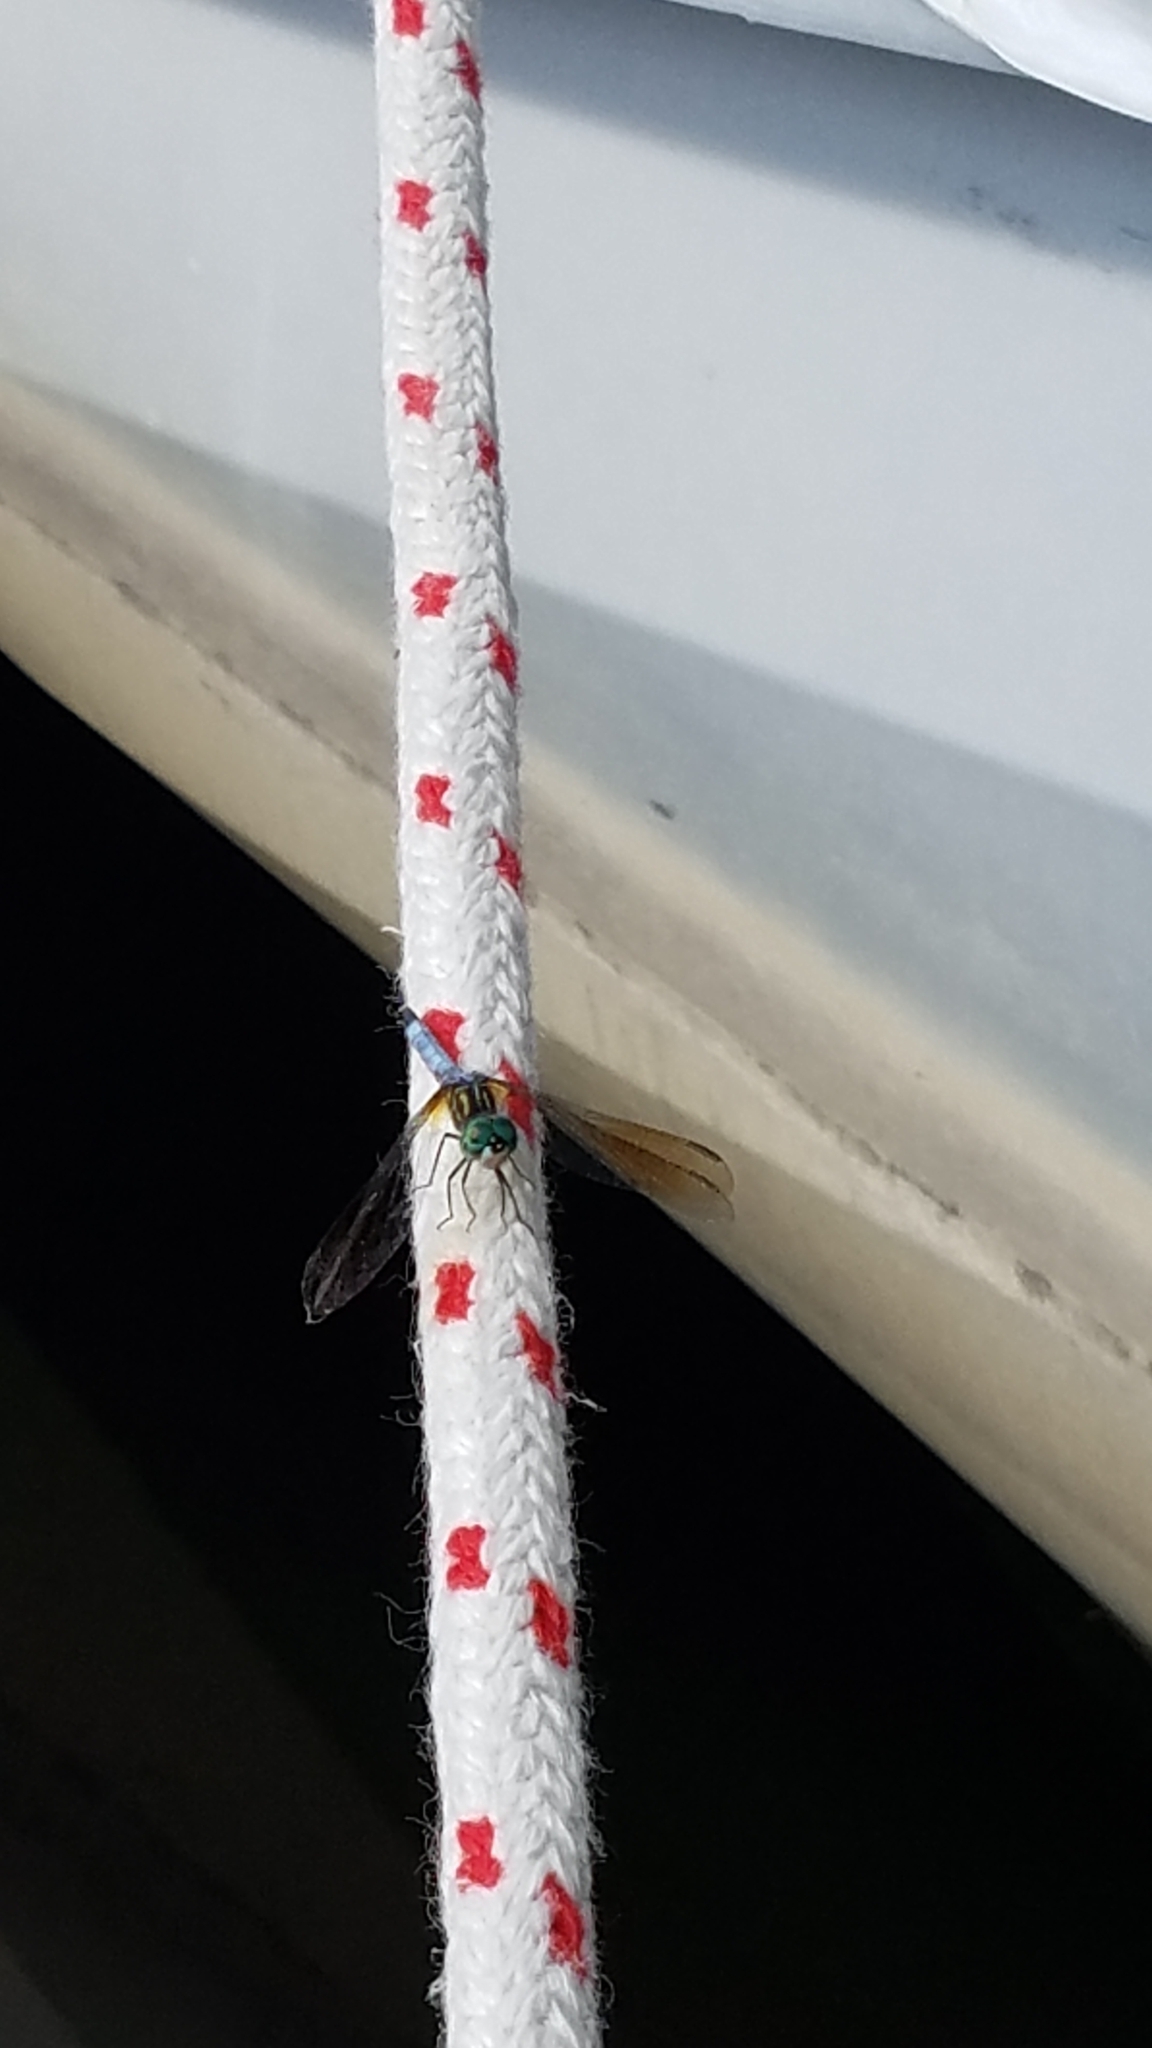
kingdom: Animalia
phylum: Arthropoda
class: Insecta
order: Odonata
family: Libellulidae
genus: Pachydiplax
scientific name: Pachydiplax longipennis
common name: Blue dasher
